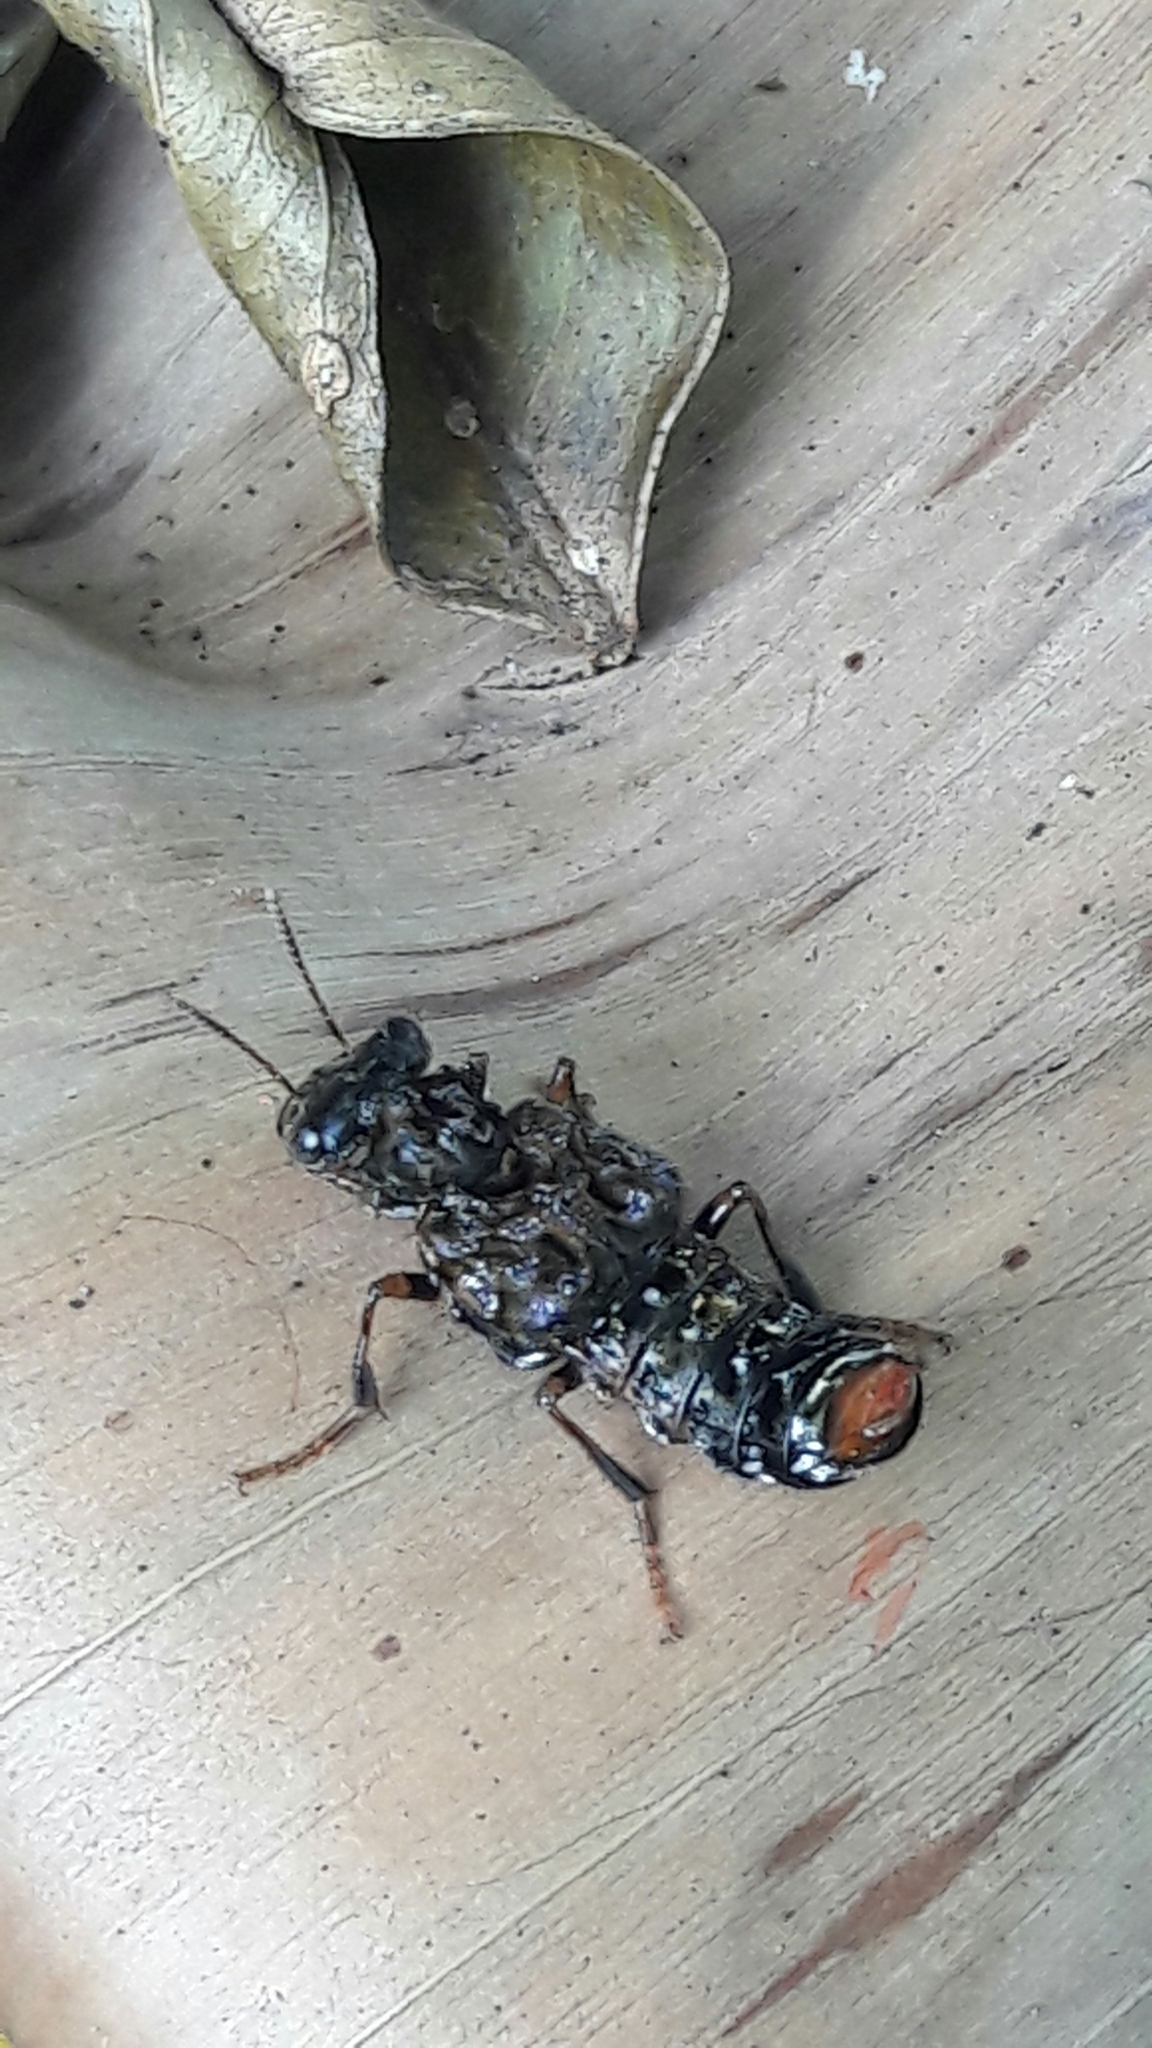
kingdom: Animalia
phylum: Arthropoda
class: Insecta
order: Coleoptera
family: Staphylinidae
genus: Leistotrophus
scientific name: Leistotrophus versicolor
